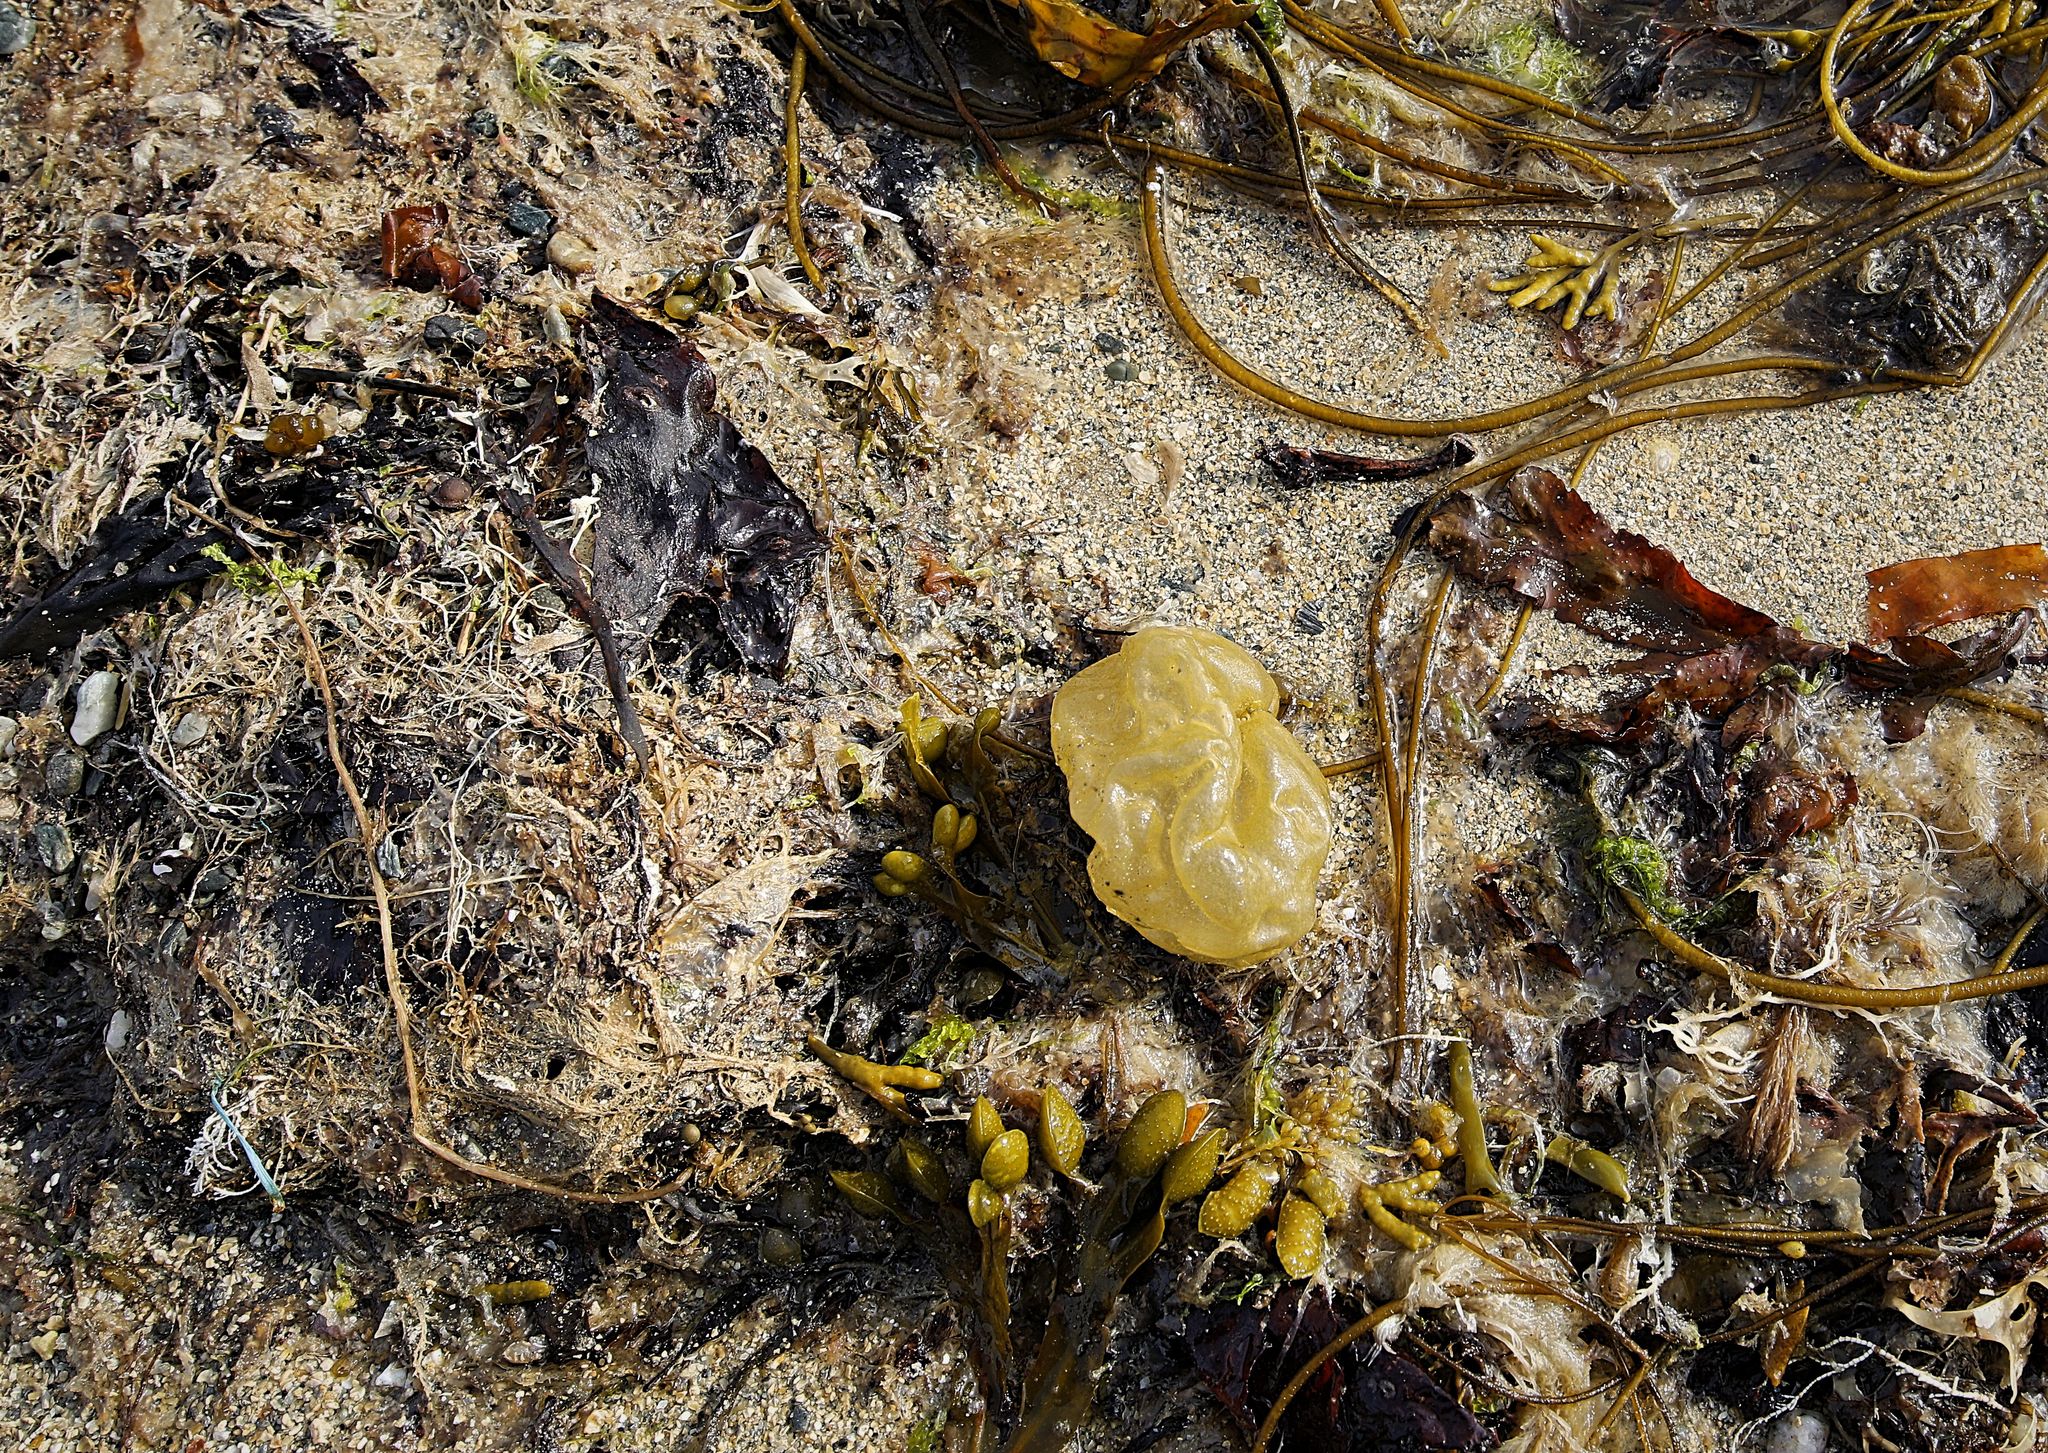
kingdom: Chromista
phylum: Ochrophyta
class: Phaeophyceae
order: Scytosiphonales
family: Scytosiphonaceae
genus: Colpomenia
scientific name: Colpomenia peregrina
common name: Oyster thief
